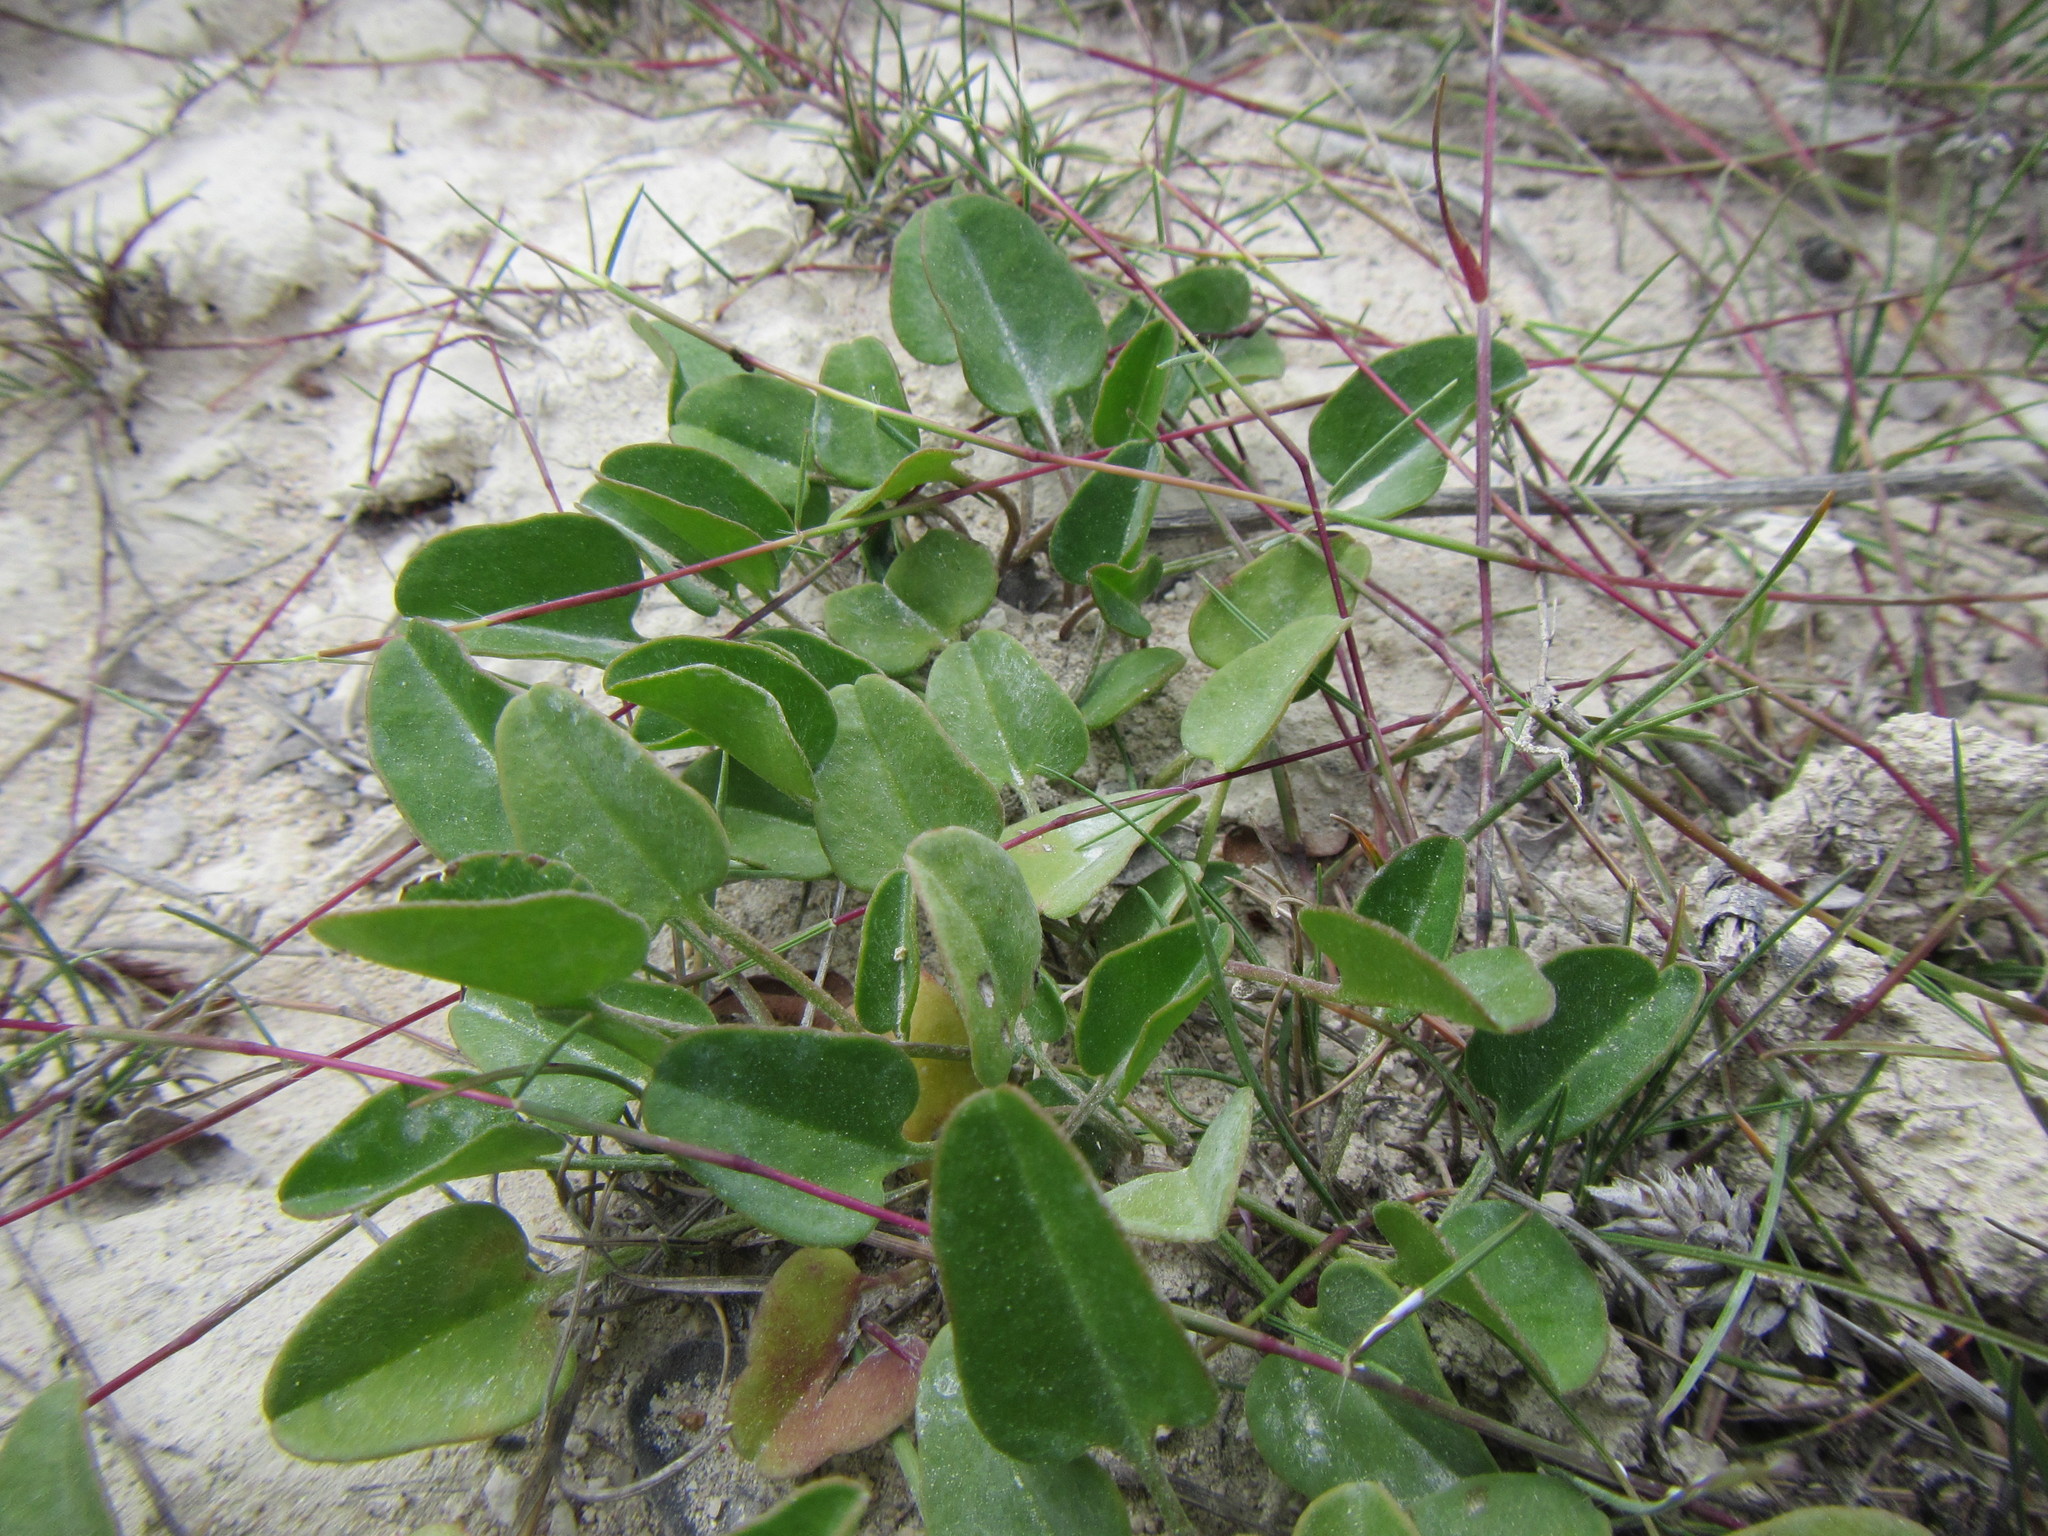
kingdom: Plantae
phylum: Tracheophyta
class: Magnoliopsida
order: Solanales
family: Convolvulaceae
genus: Falkia
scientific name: Falkia repens
